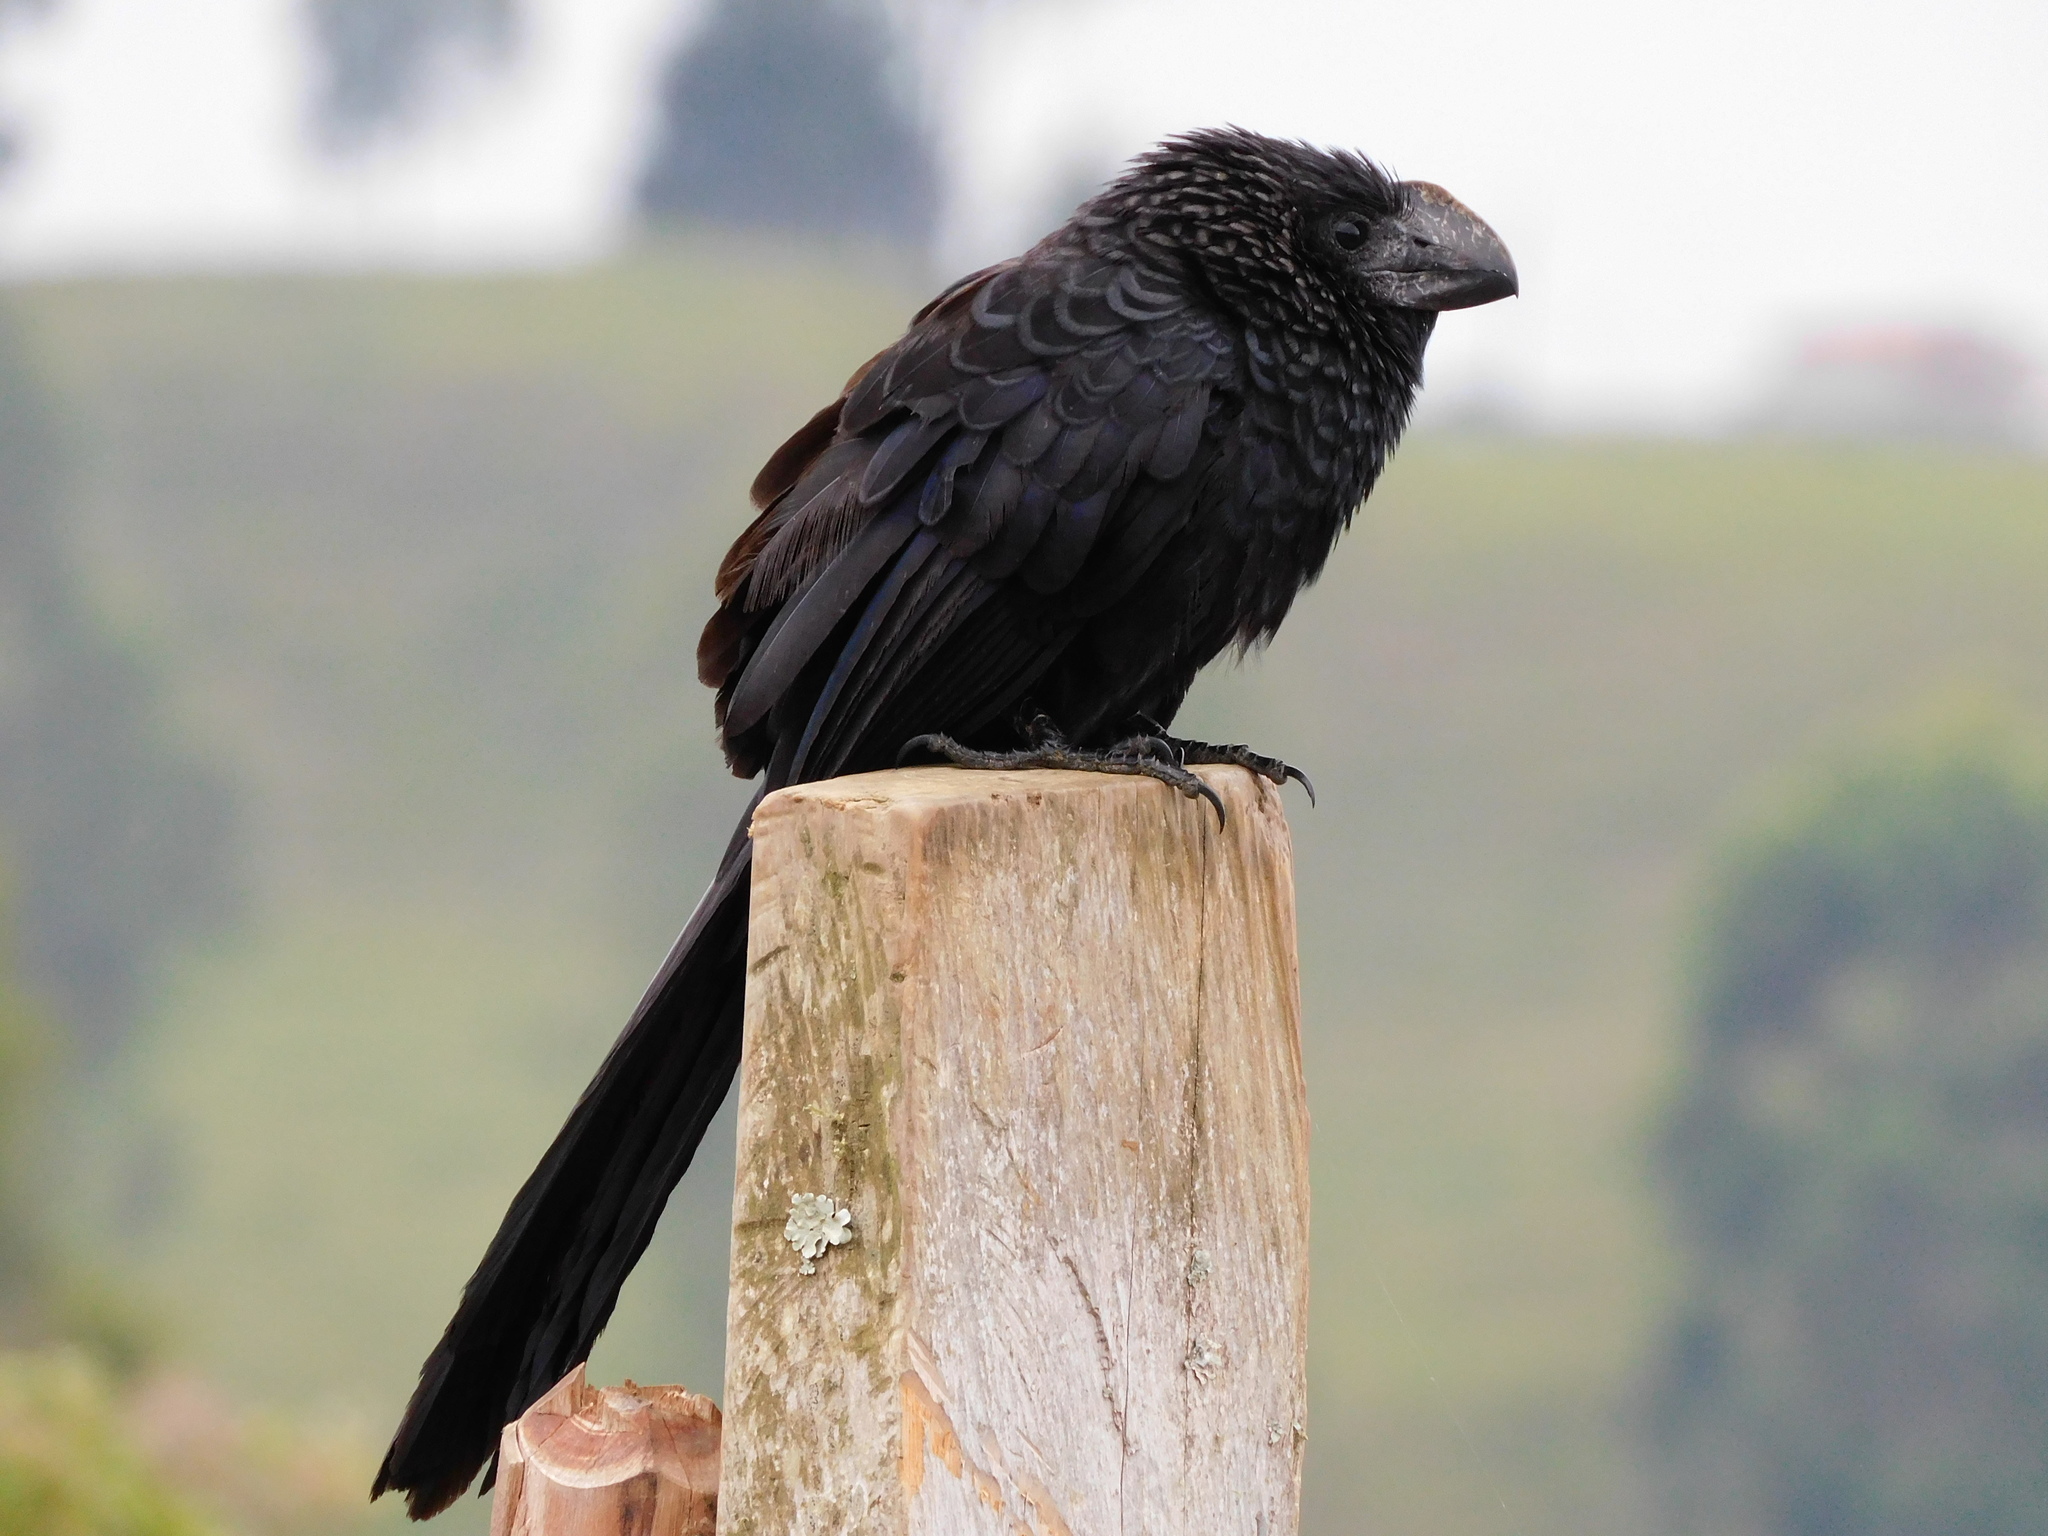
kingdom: Animalia
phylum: Chordata
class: Aves
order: Cuculiformes
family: Cuculidae
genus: Crotophaga
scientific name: Crotophaga ani
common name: Smooth-billed ani
